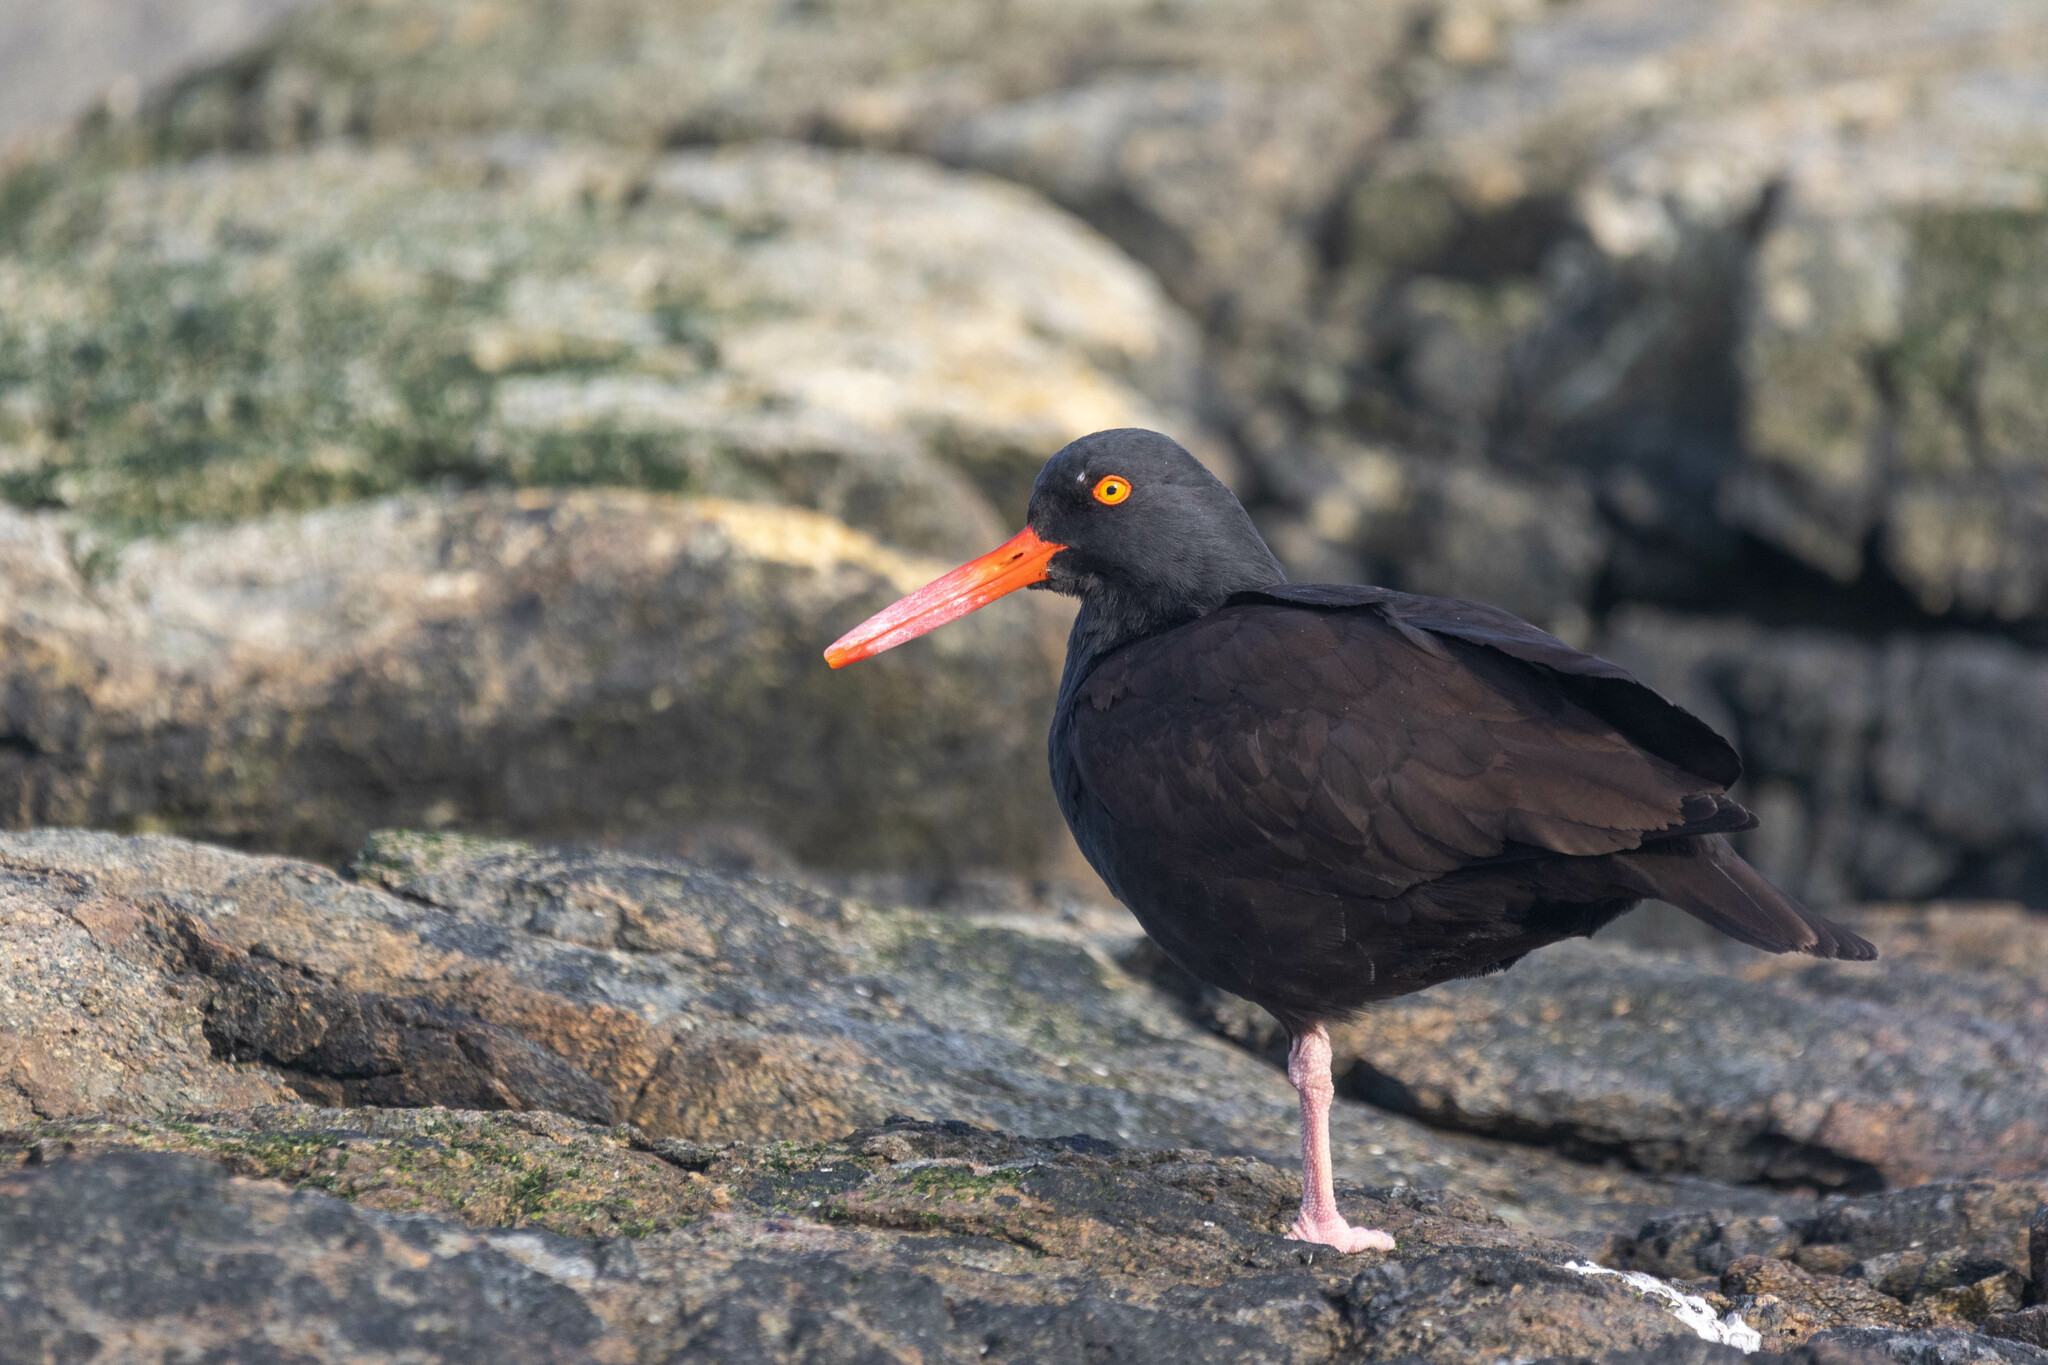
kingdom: Animalia
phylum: Chordata
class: Aves
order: Charadriiformes
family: Haematopodidae
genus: Haematopus
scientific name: Haematopus bachmani
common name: Black oystercatcher
